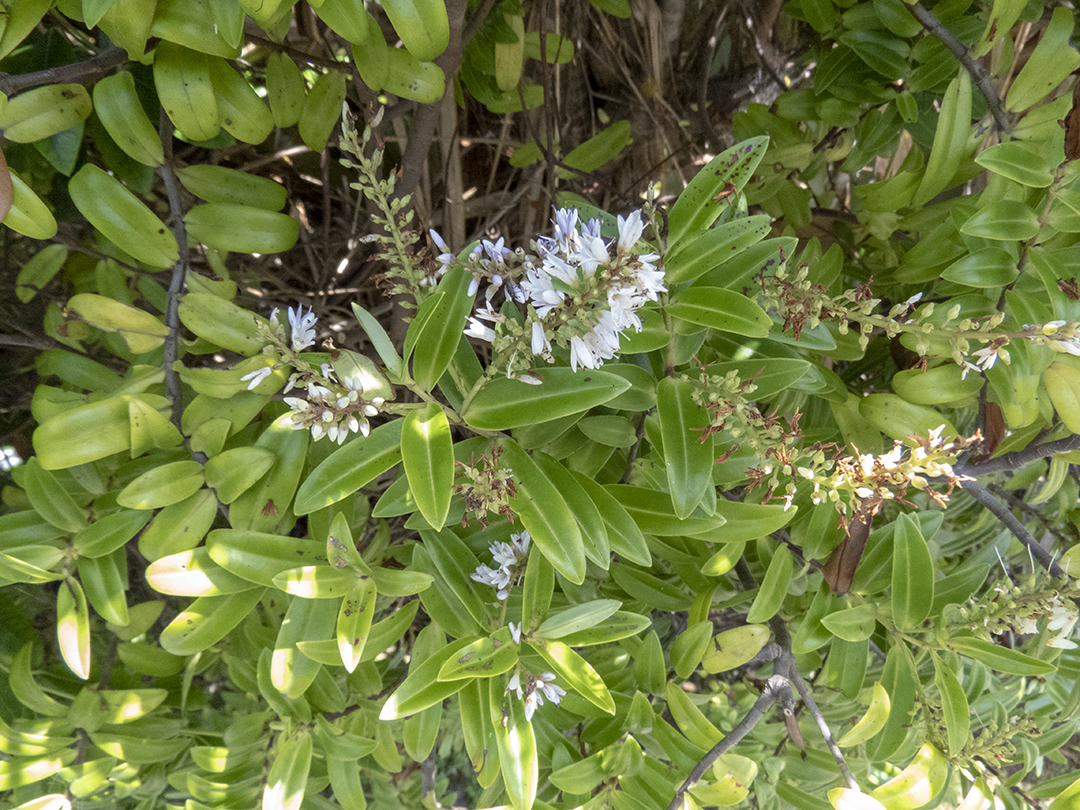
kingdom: Plantae
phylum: Tracheophyta
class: Magnoliopsida
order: Lamiales
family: Plantaginaceae
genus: Veronica
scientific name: Veronica leiophylla
